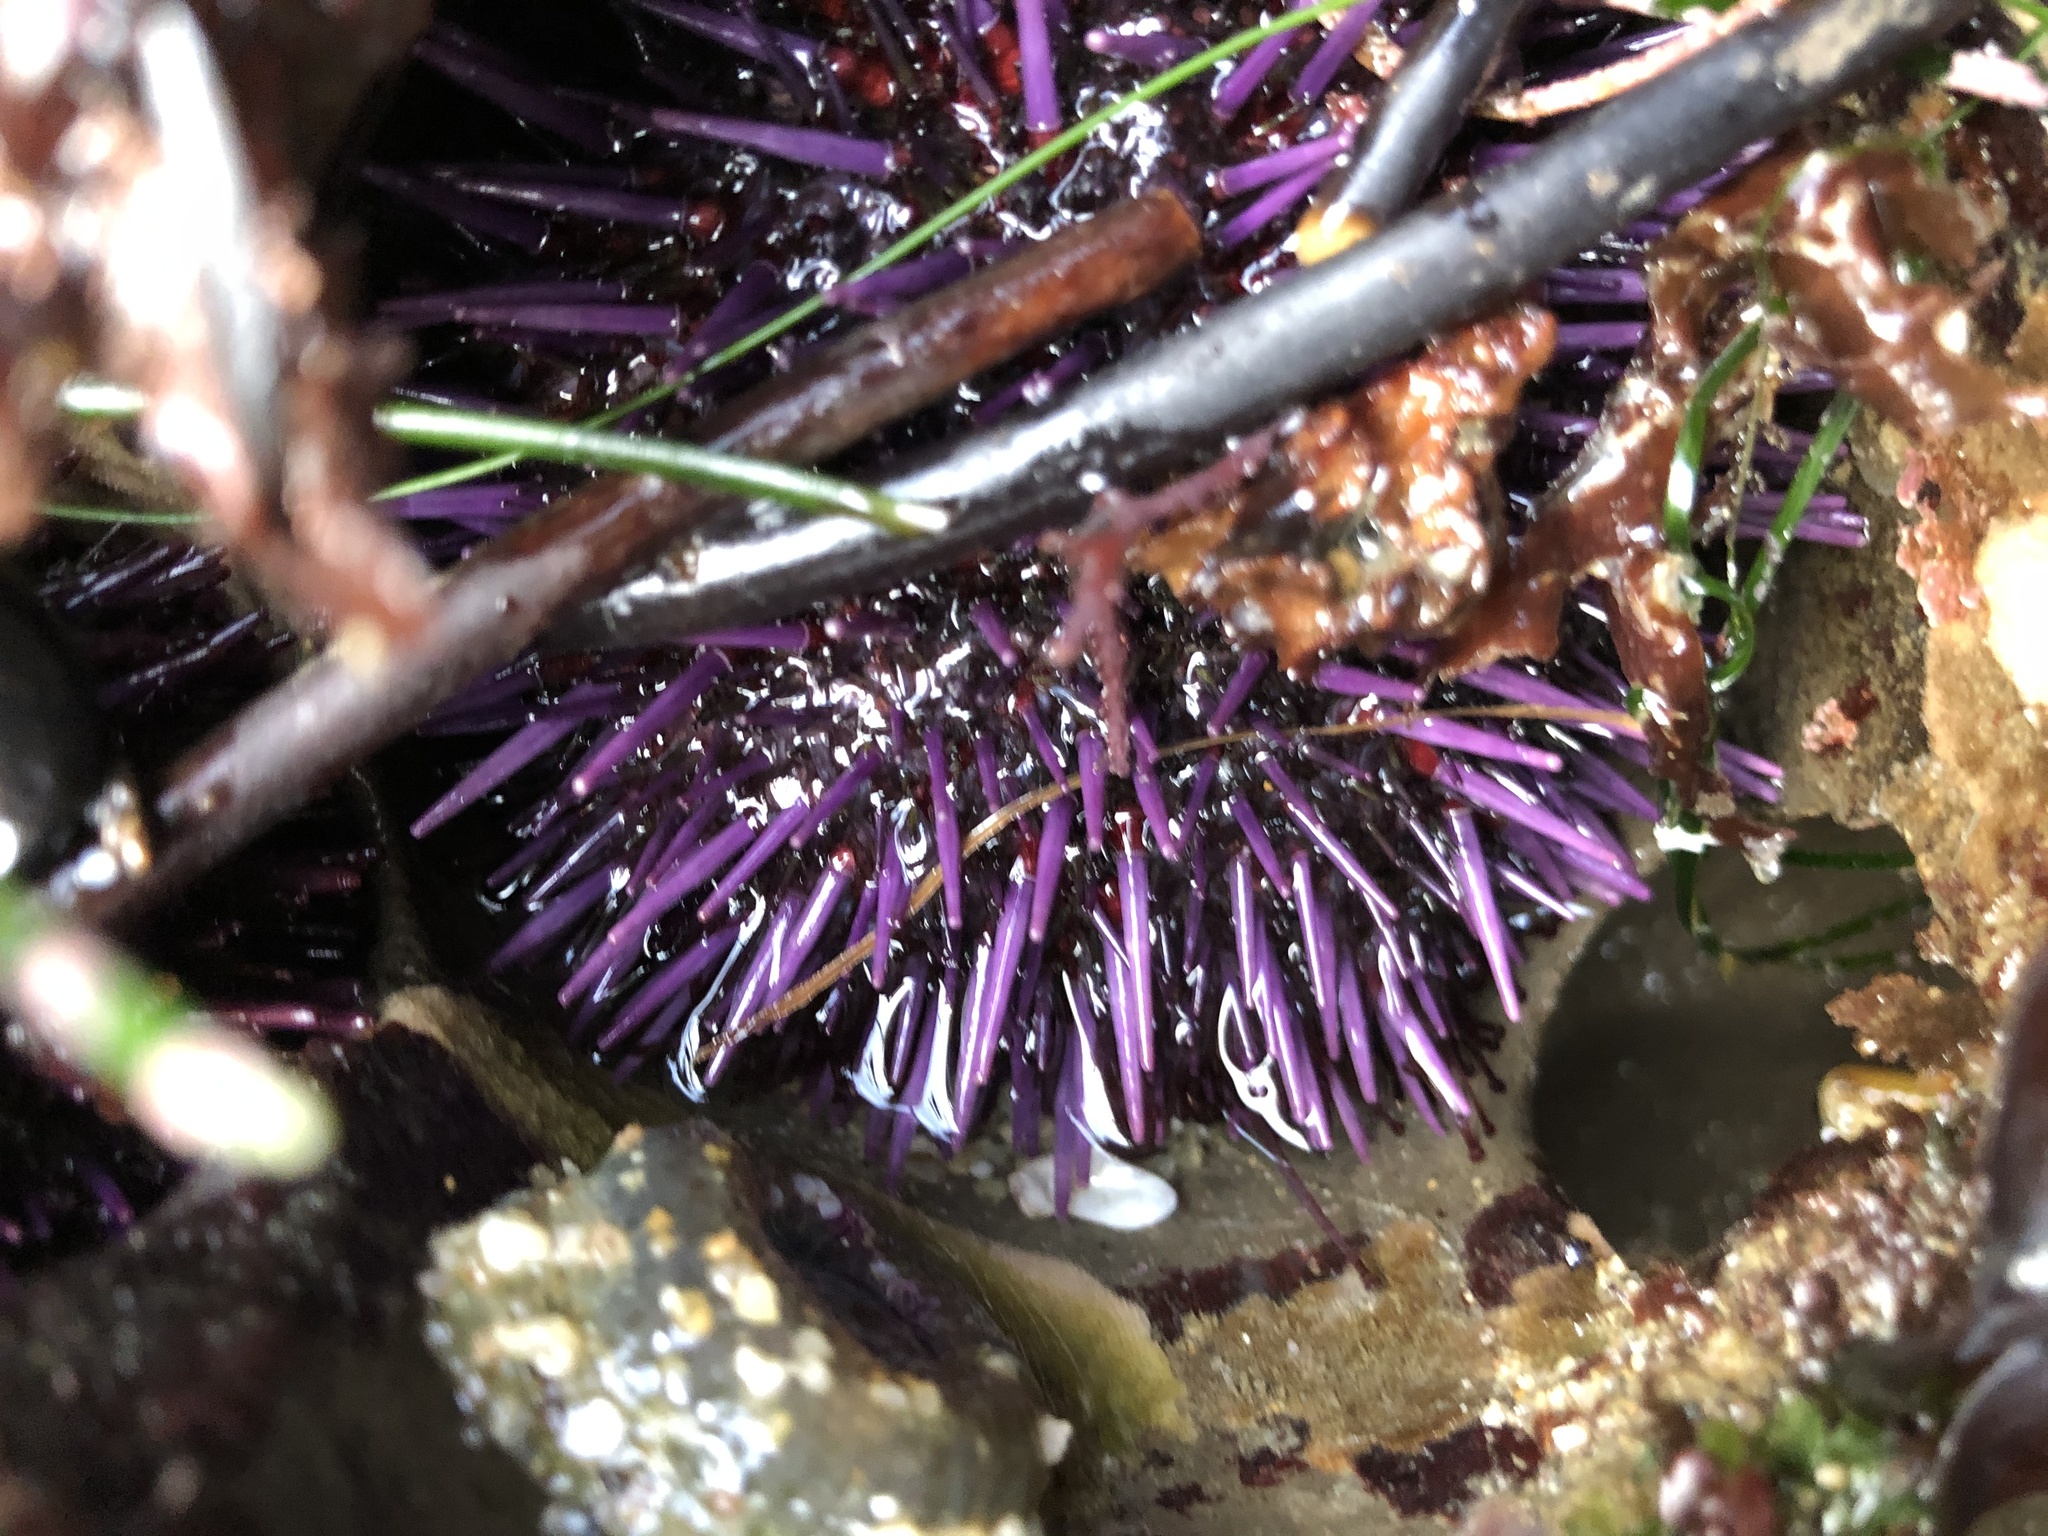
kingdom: Animalia
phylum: Echinodermata
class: Echinoidea
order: Camarodonta
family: Strongylocentrotidae
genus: Strongylocentrotus
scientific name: Strongylocentrotus purpuratus
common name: Purple sea urchin
